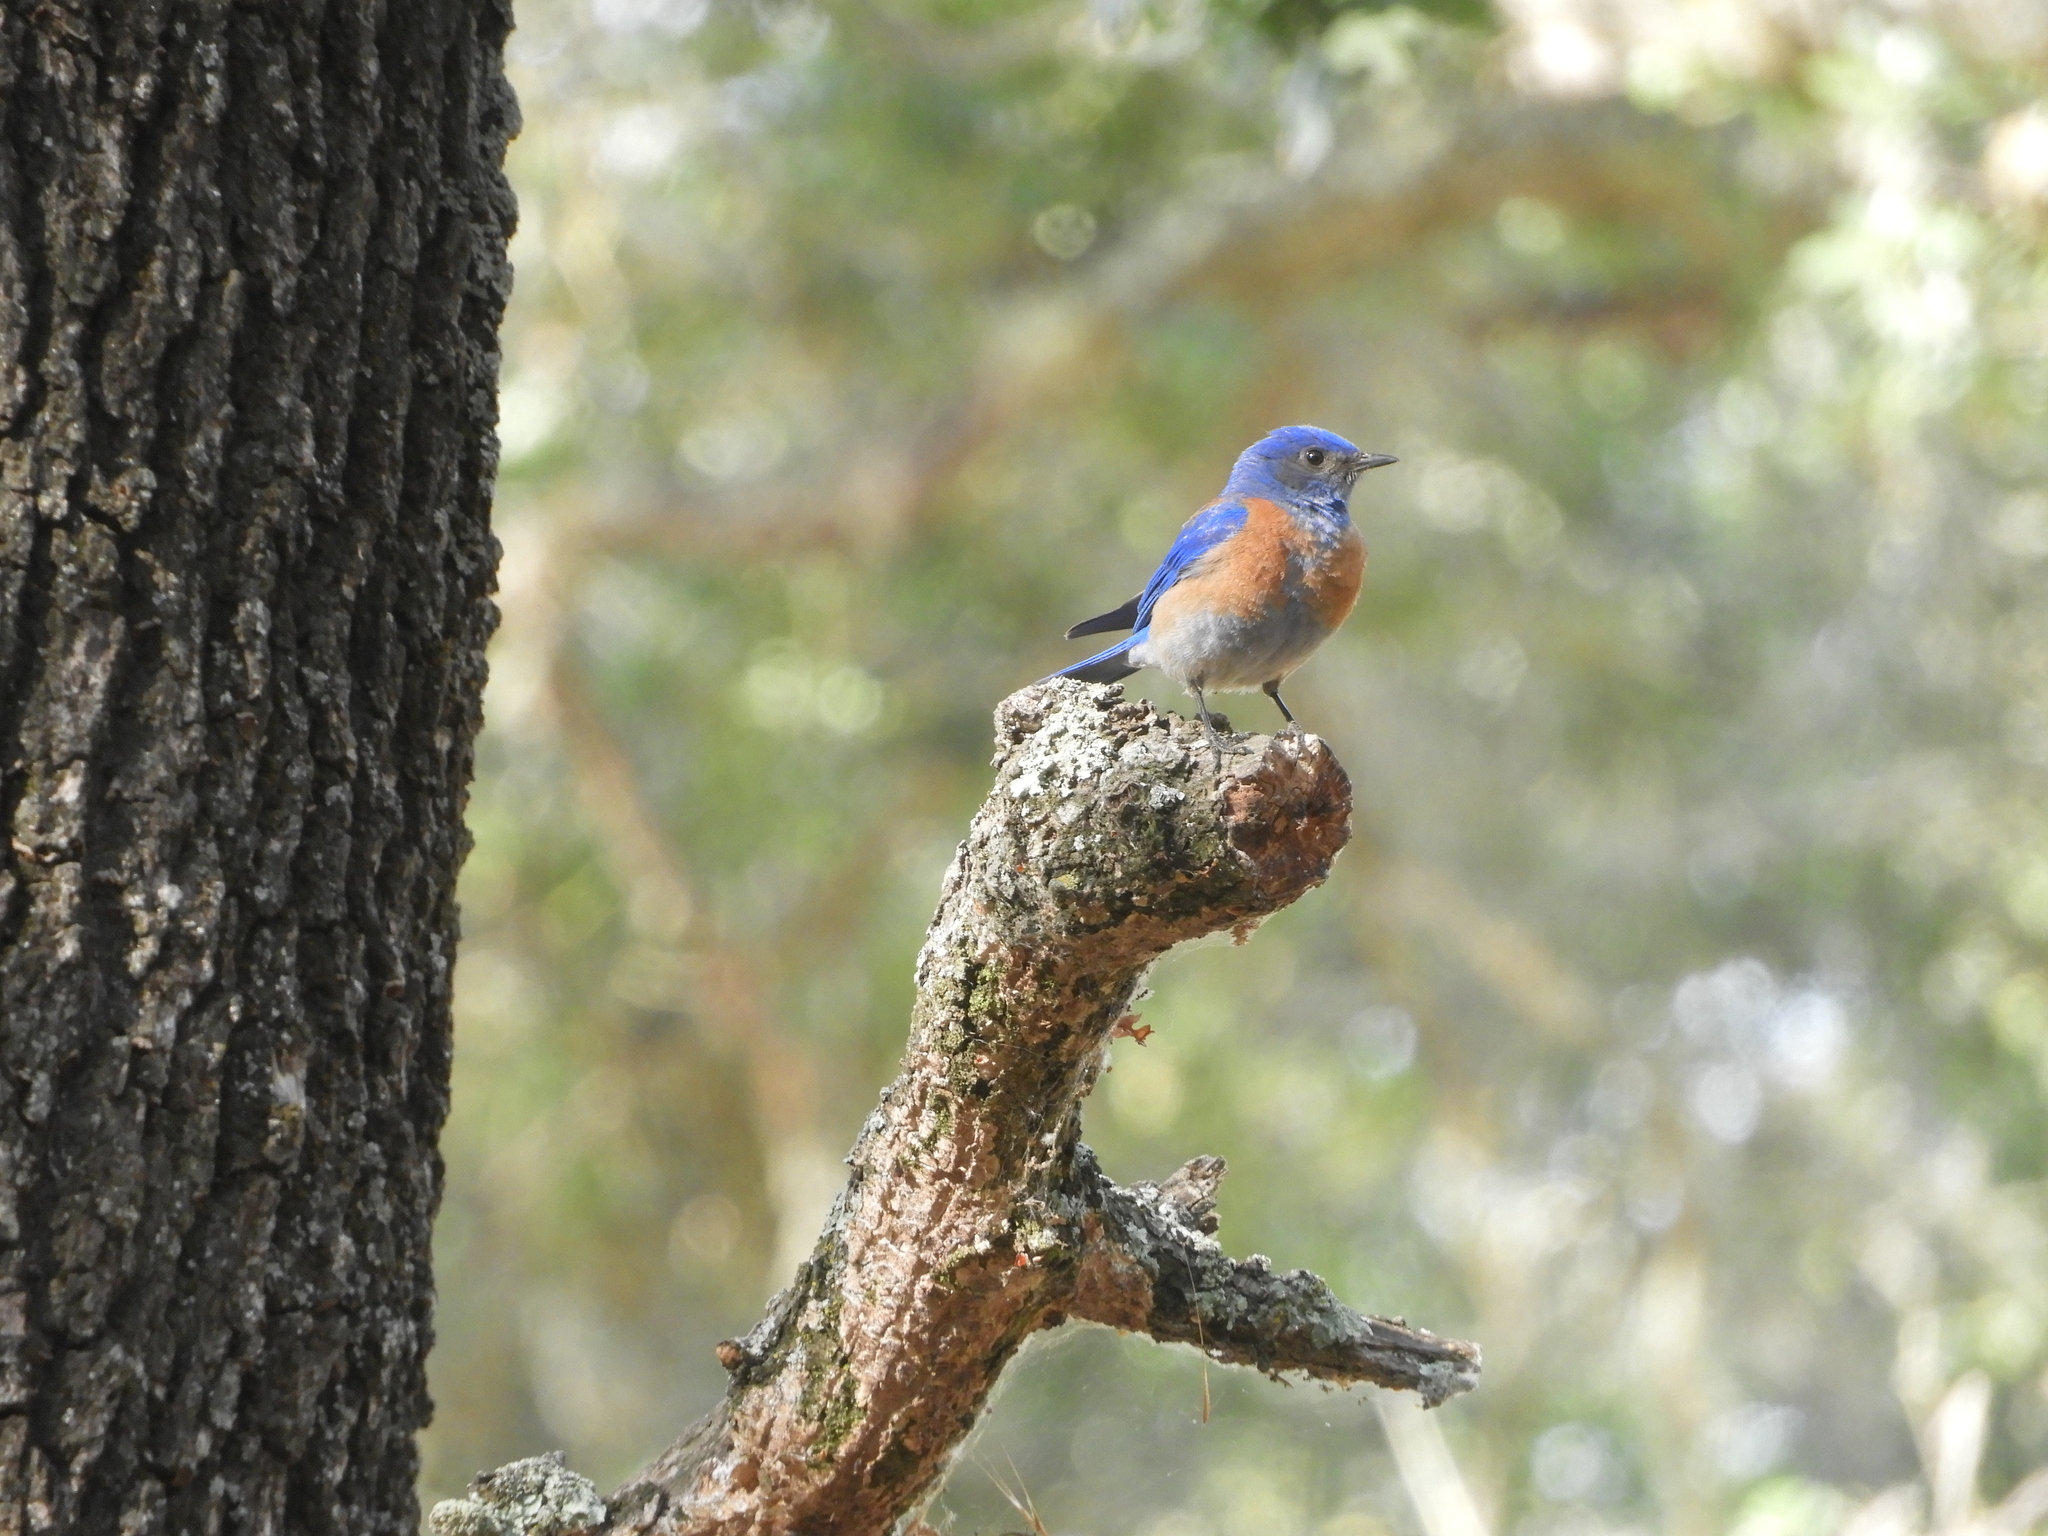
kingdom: Animalia
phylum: Chordata
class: Aves
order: Passeriformes
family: Turdidae
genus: Sialia
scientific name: Sialia mexicana
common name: Western bluebird
